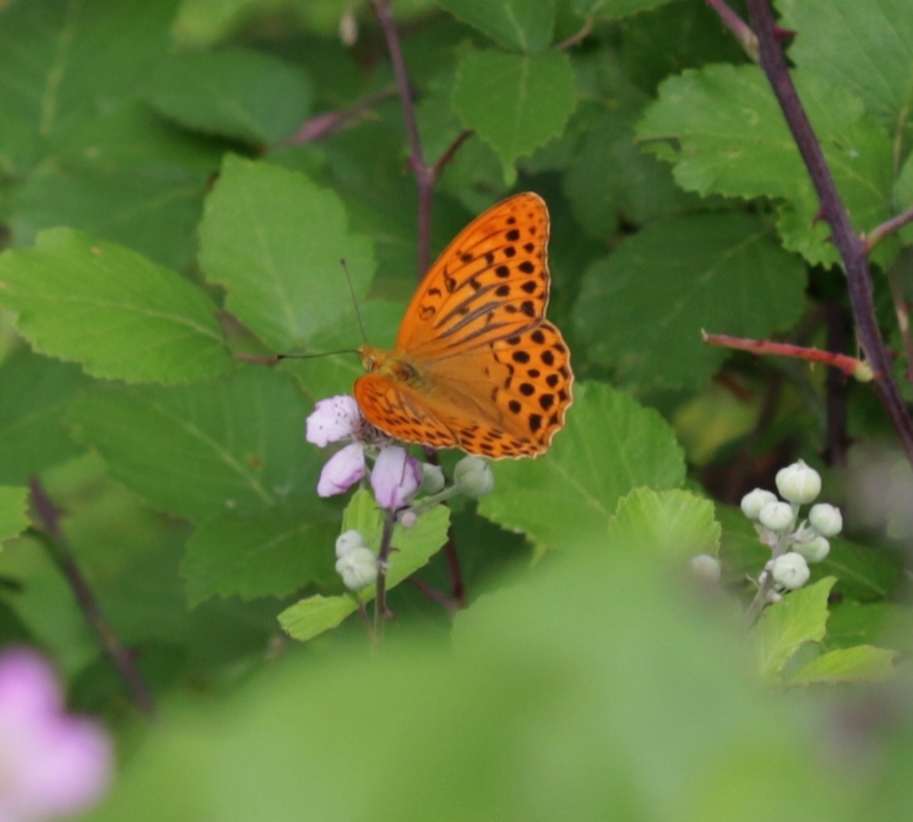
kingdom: Animalia
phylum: Arthropoda
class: Insecta
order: Lepidoptera
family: Nymphalidae
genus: Argynnis
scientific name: Argynnis paphia
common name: Silver-washed fritillary
